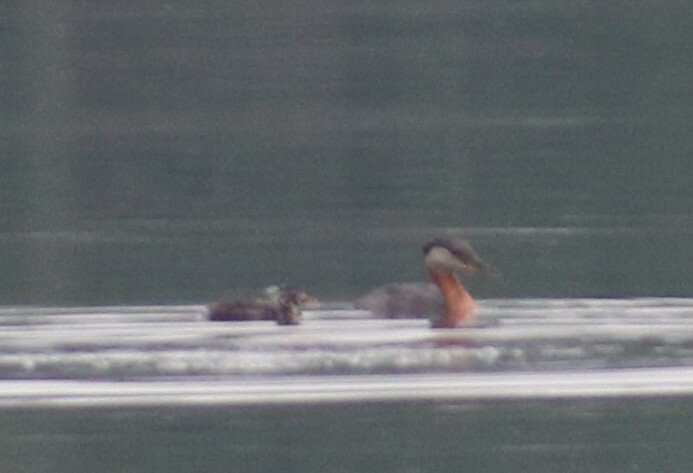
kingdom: Animalia
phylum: Chordata
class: Aves
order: Podicipediformes
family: Podicipedidae
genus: Podiceps
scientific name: Podiceps grisegena
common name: Red-necked grebe
